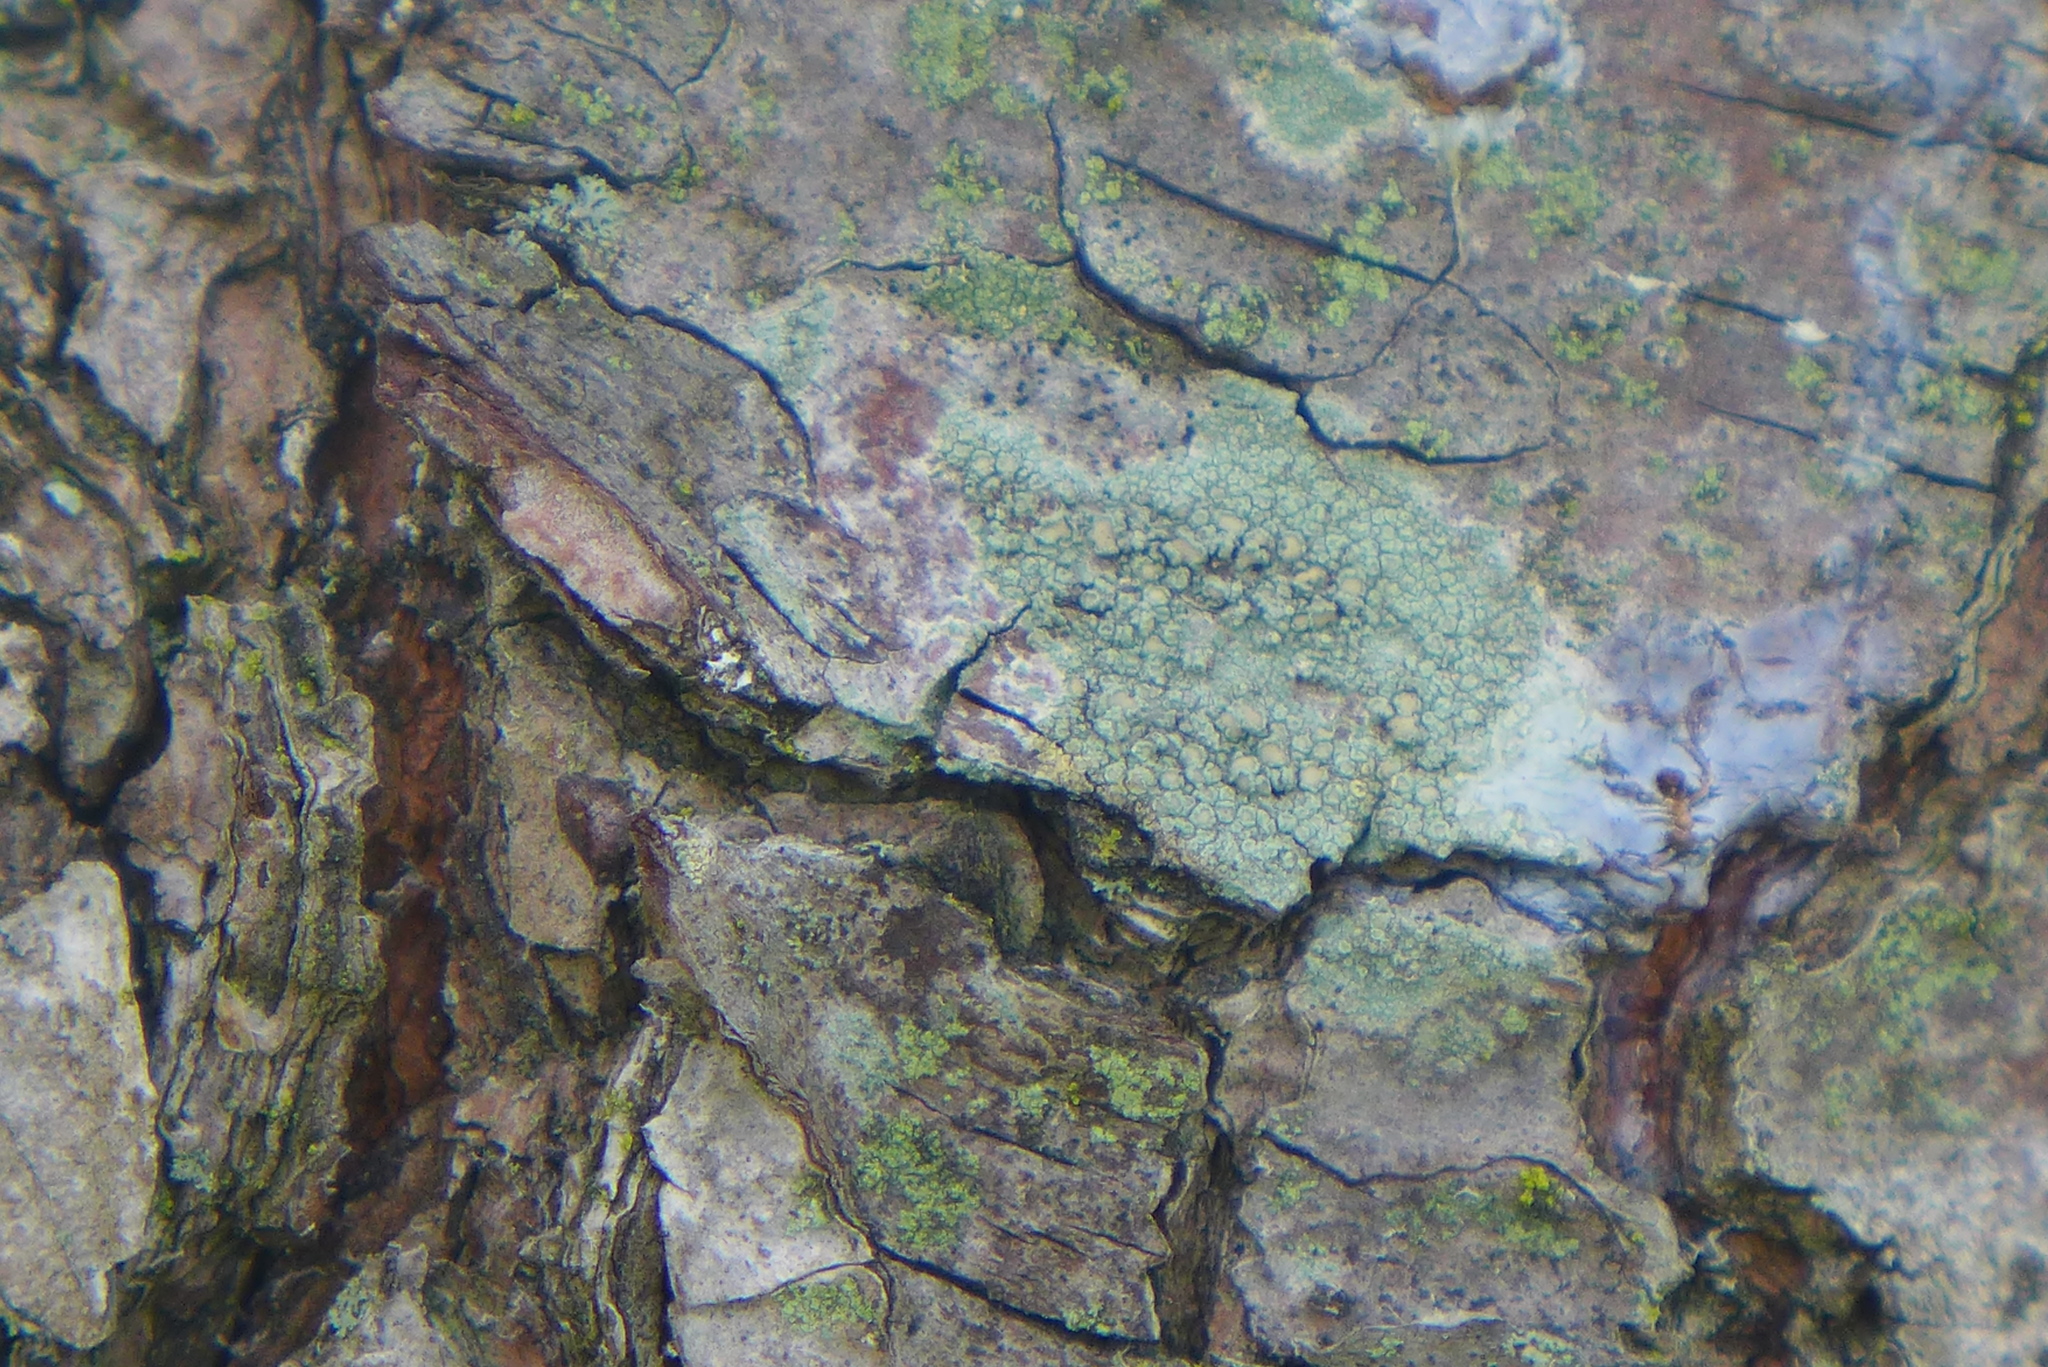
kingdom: Fungi
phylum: Ascomycota
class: Lecanoromycetes
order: Lecanorales
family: Lecanoraceae
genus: Lecanora
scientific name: Lecanora strobilina
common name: Mealy rim-lichen
